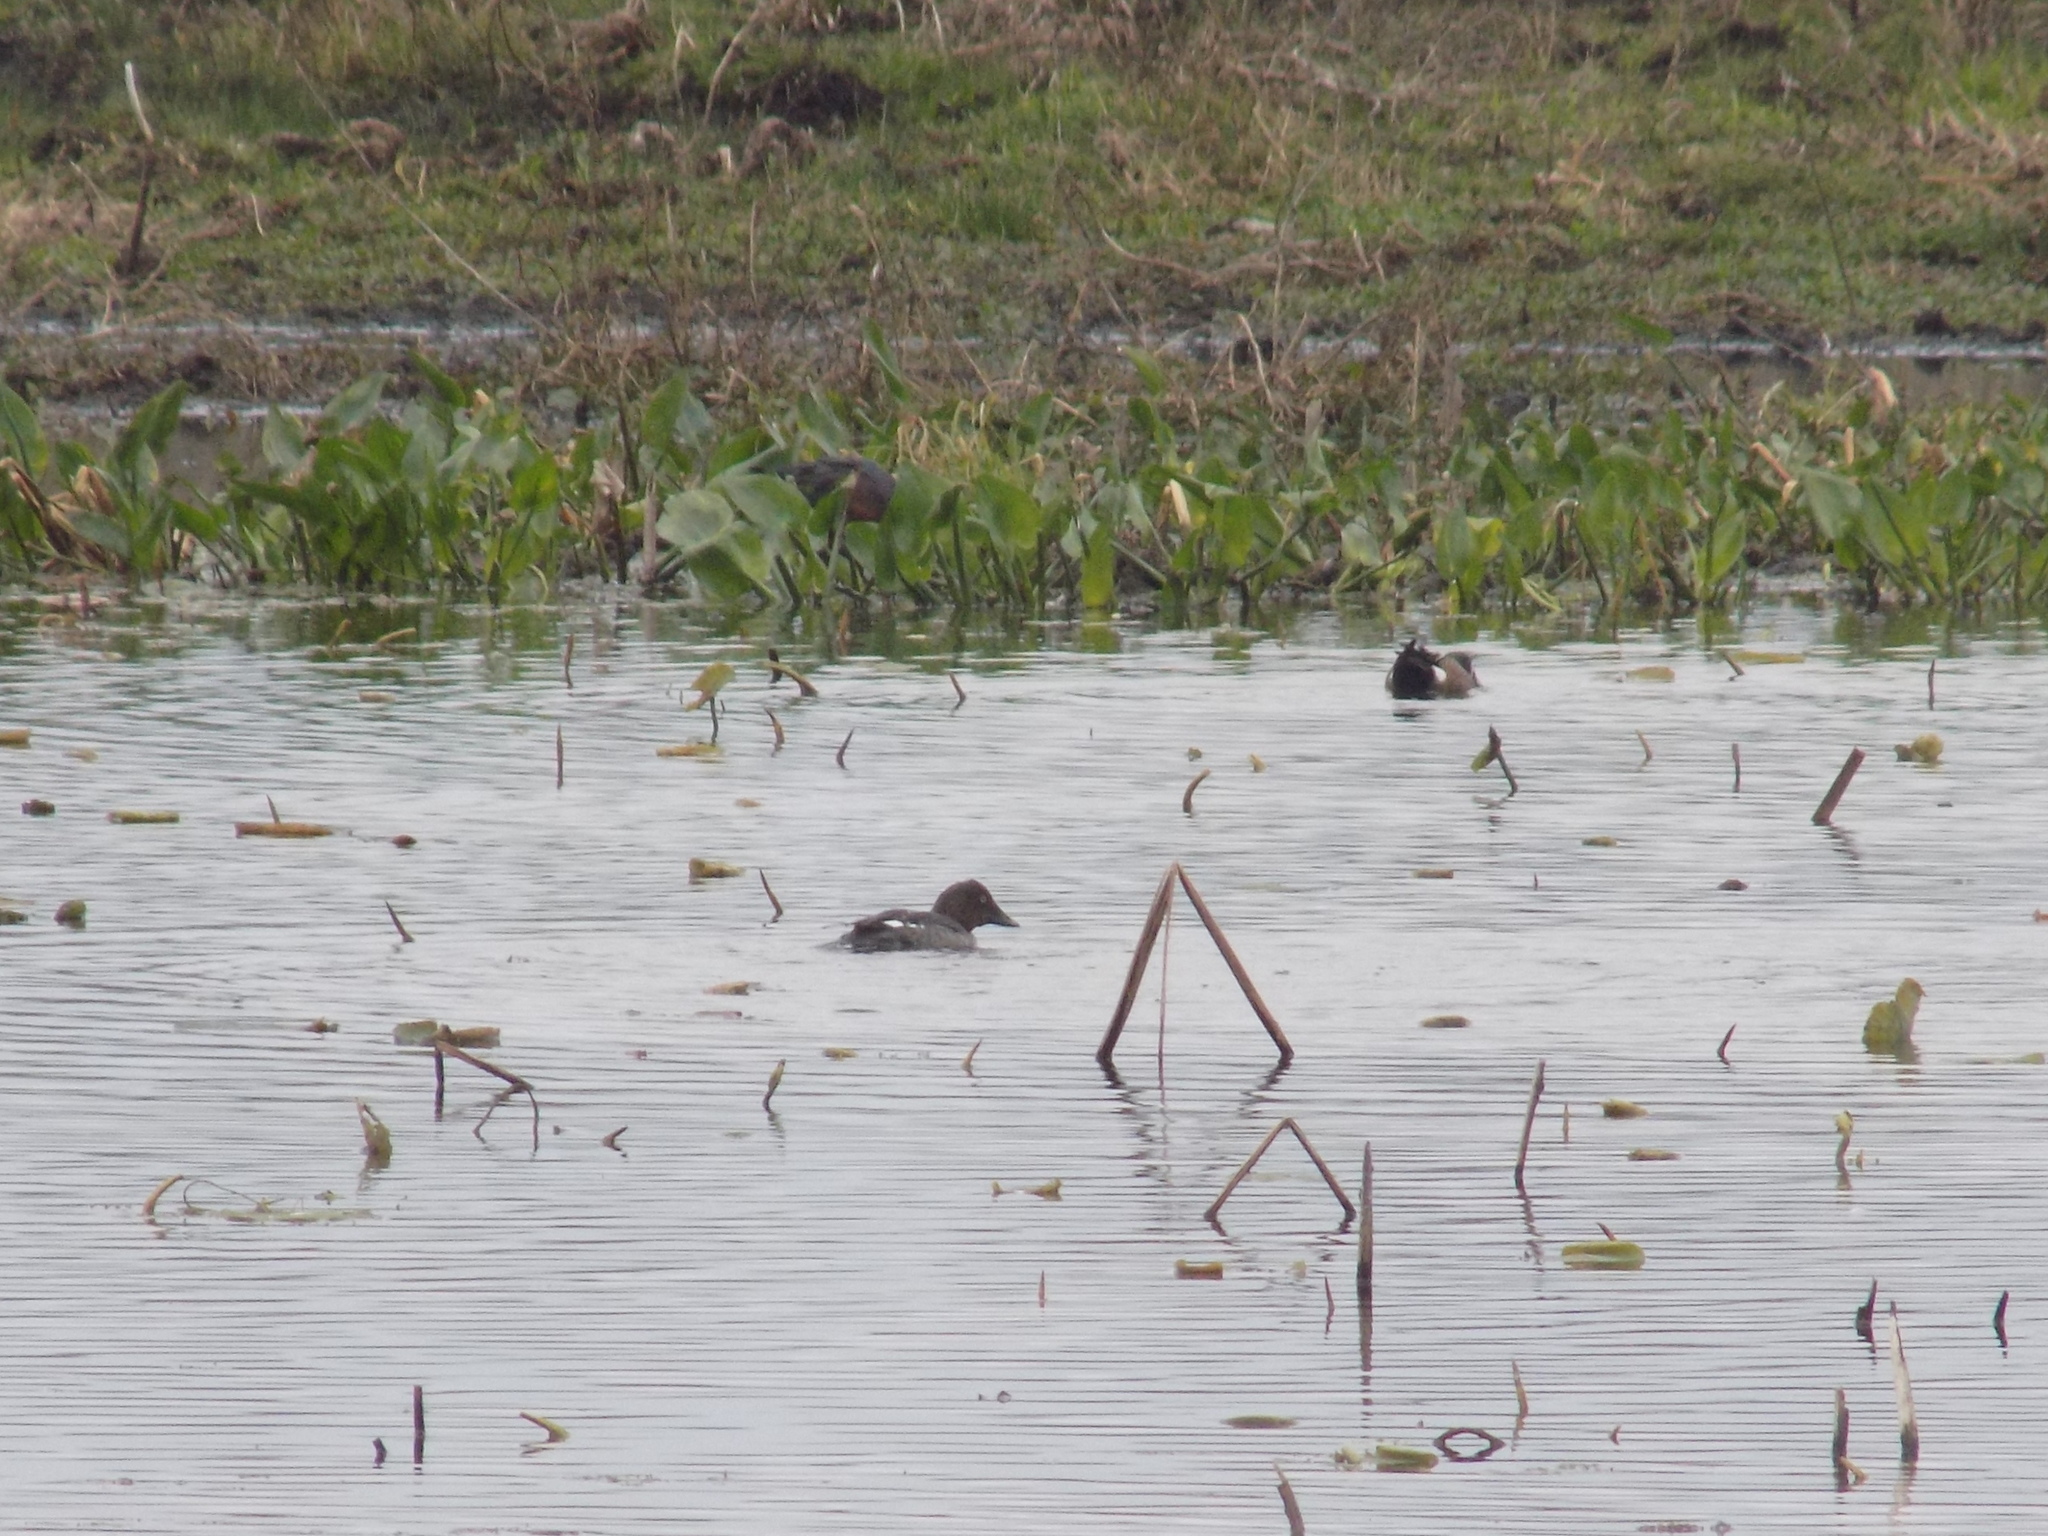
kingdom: Animalia
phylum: Chordata
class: Aves
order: Anseriformes
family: Anatidae
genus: Bucephala
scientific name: Bucephala clangula
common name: Common goldeneye
